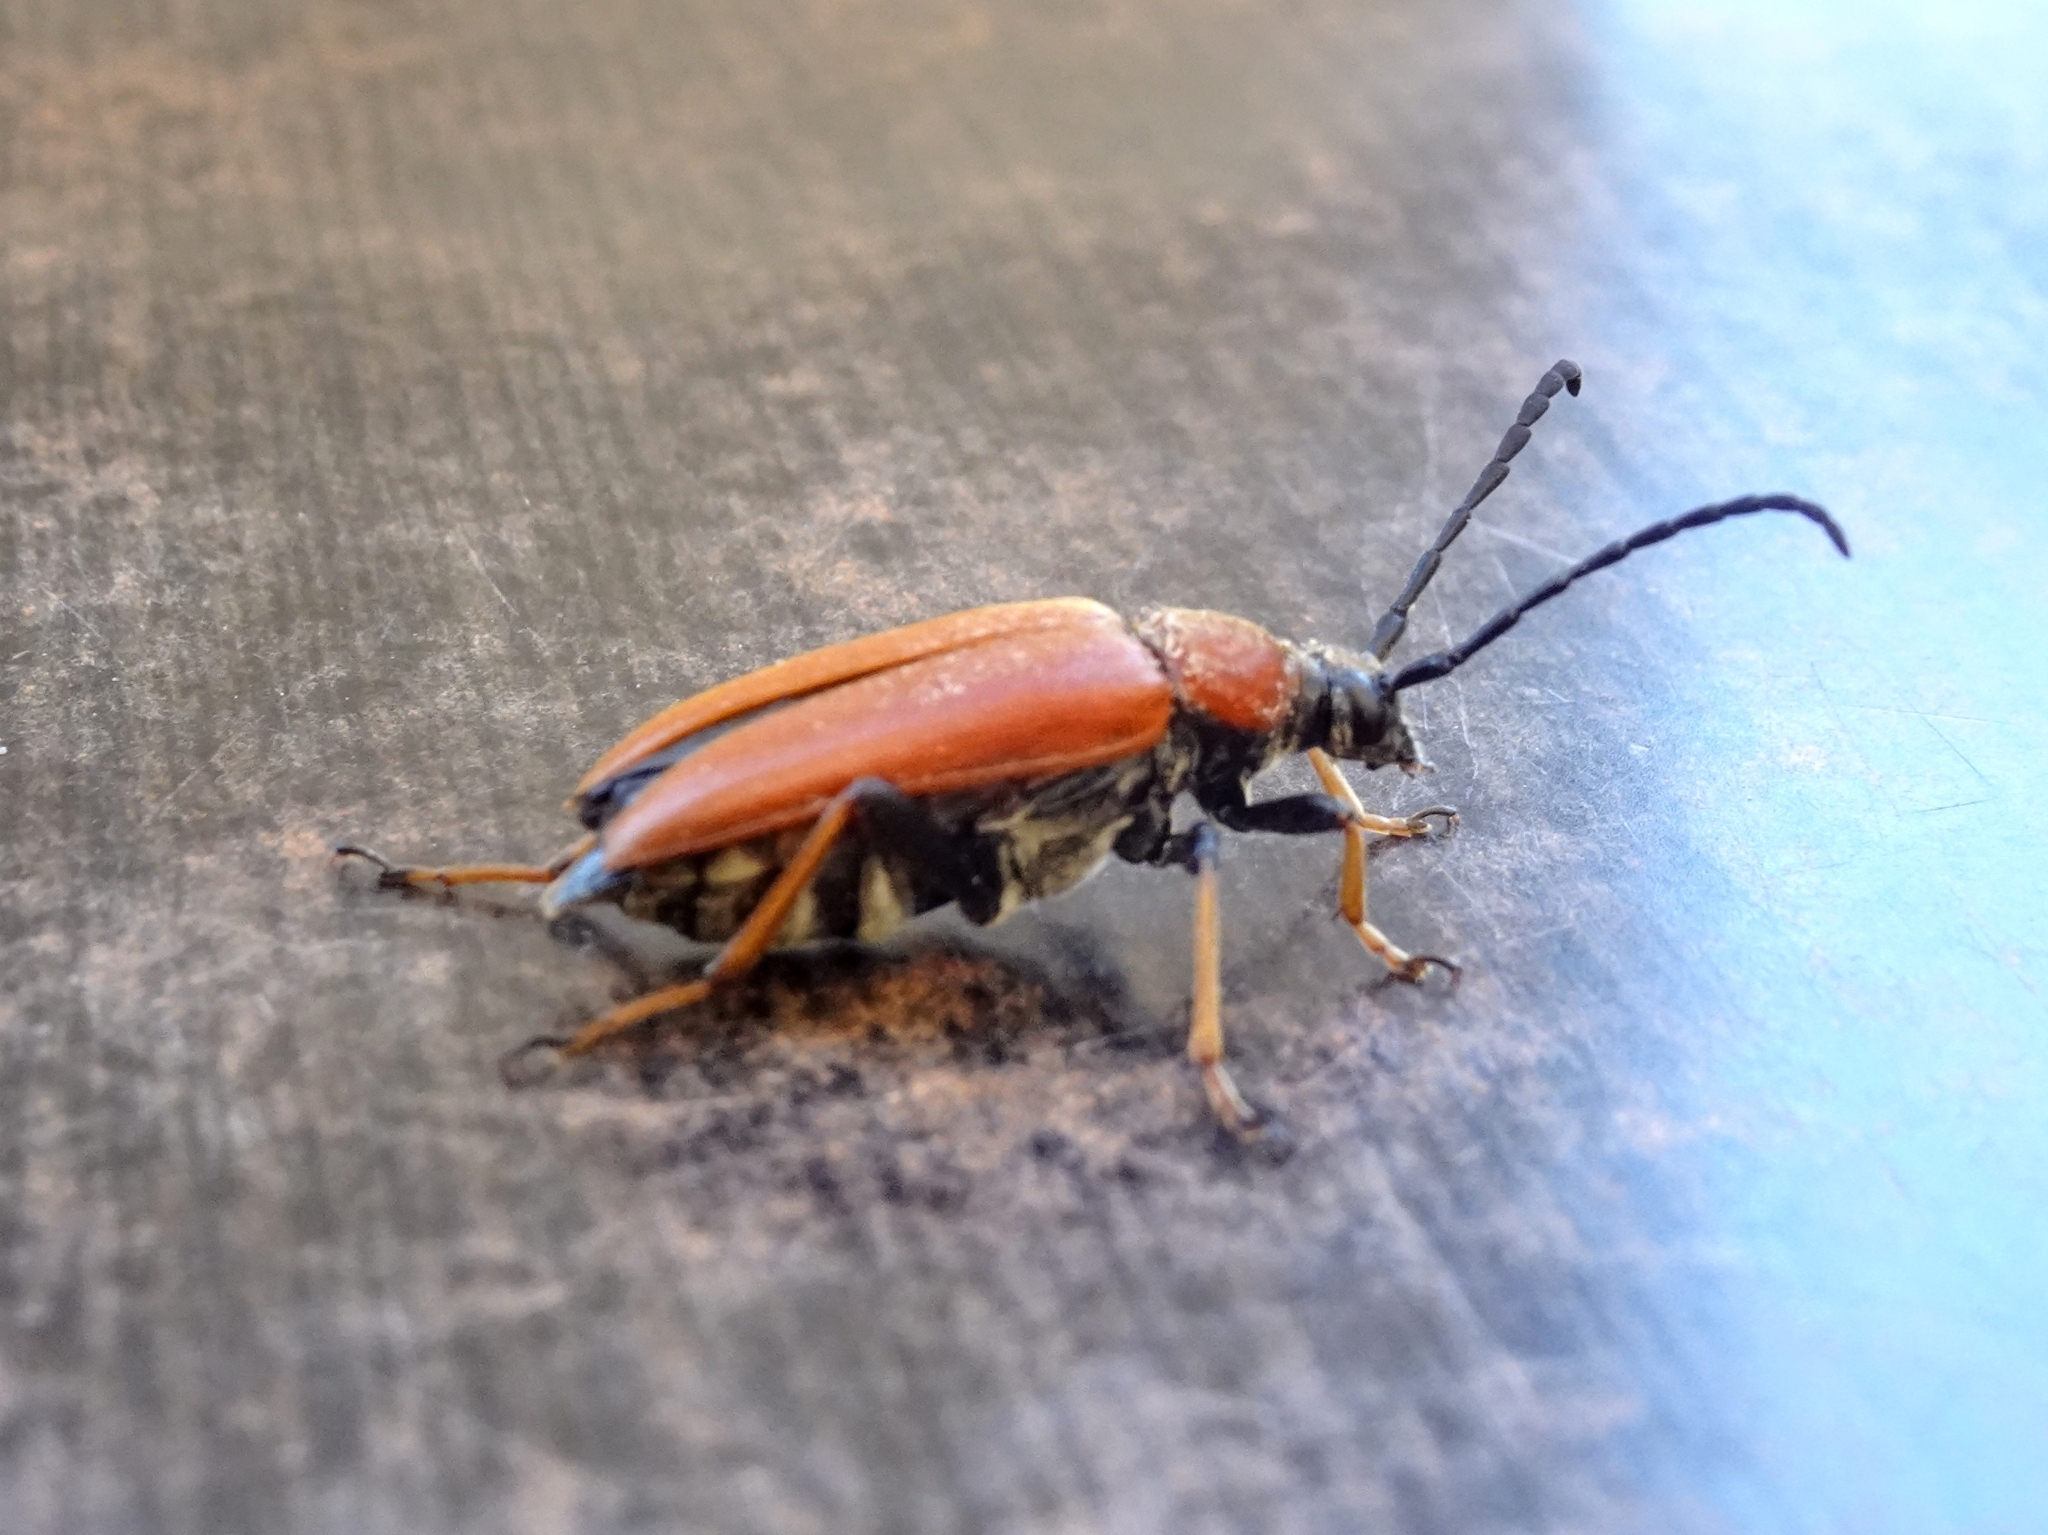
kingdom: Animalia
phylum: Arthropoda
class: Insecta
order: Coleoptera
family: Cerambycidae
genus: Stictoleptura
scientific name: Stictoleptura rubra
